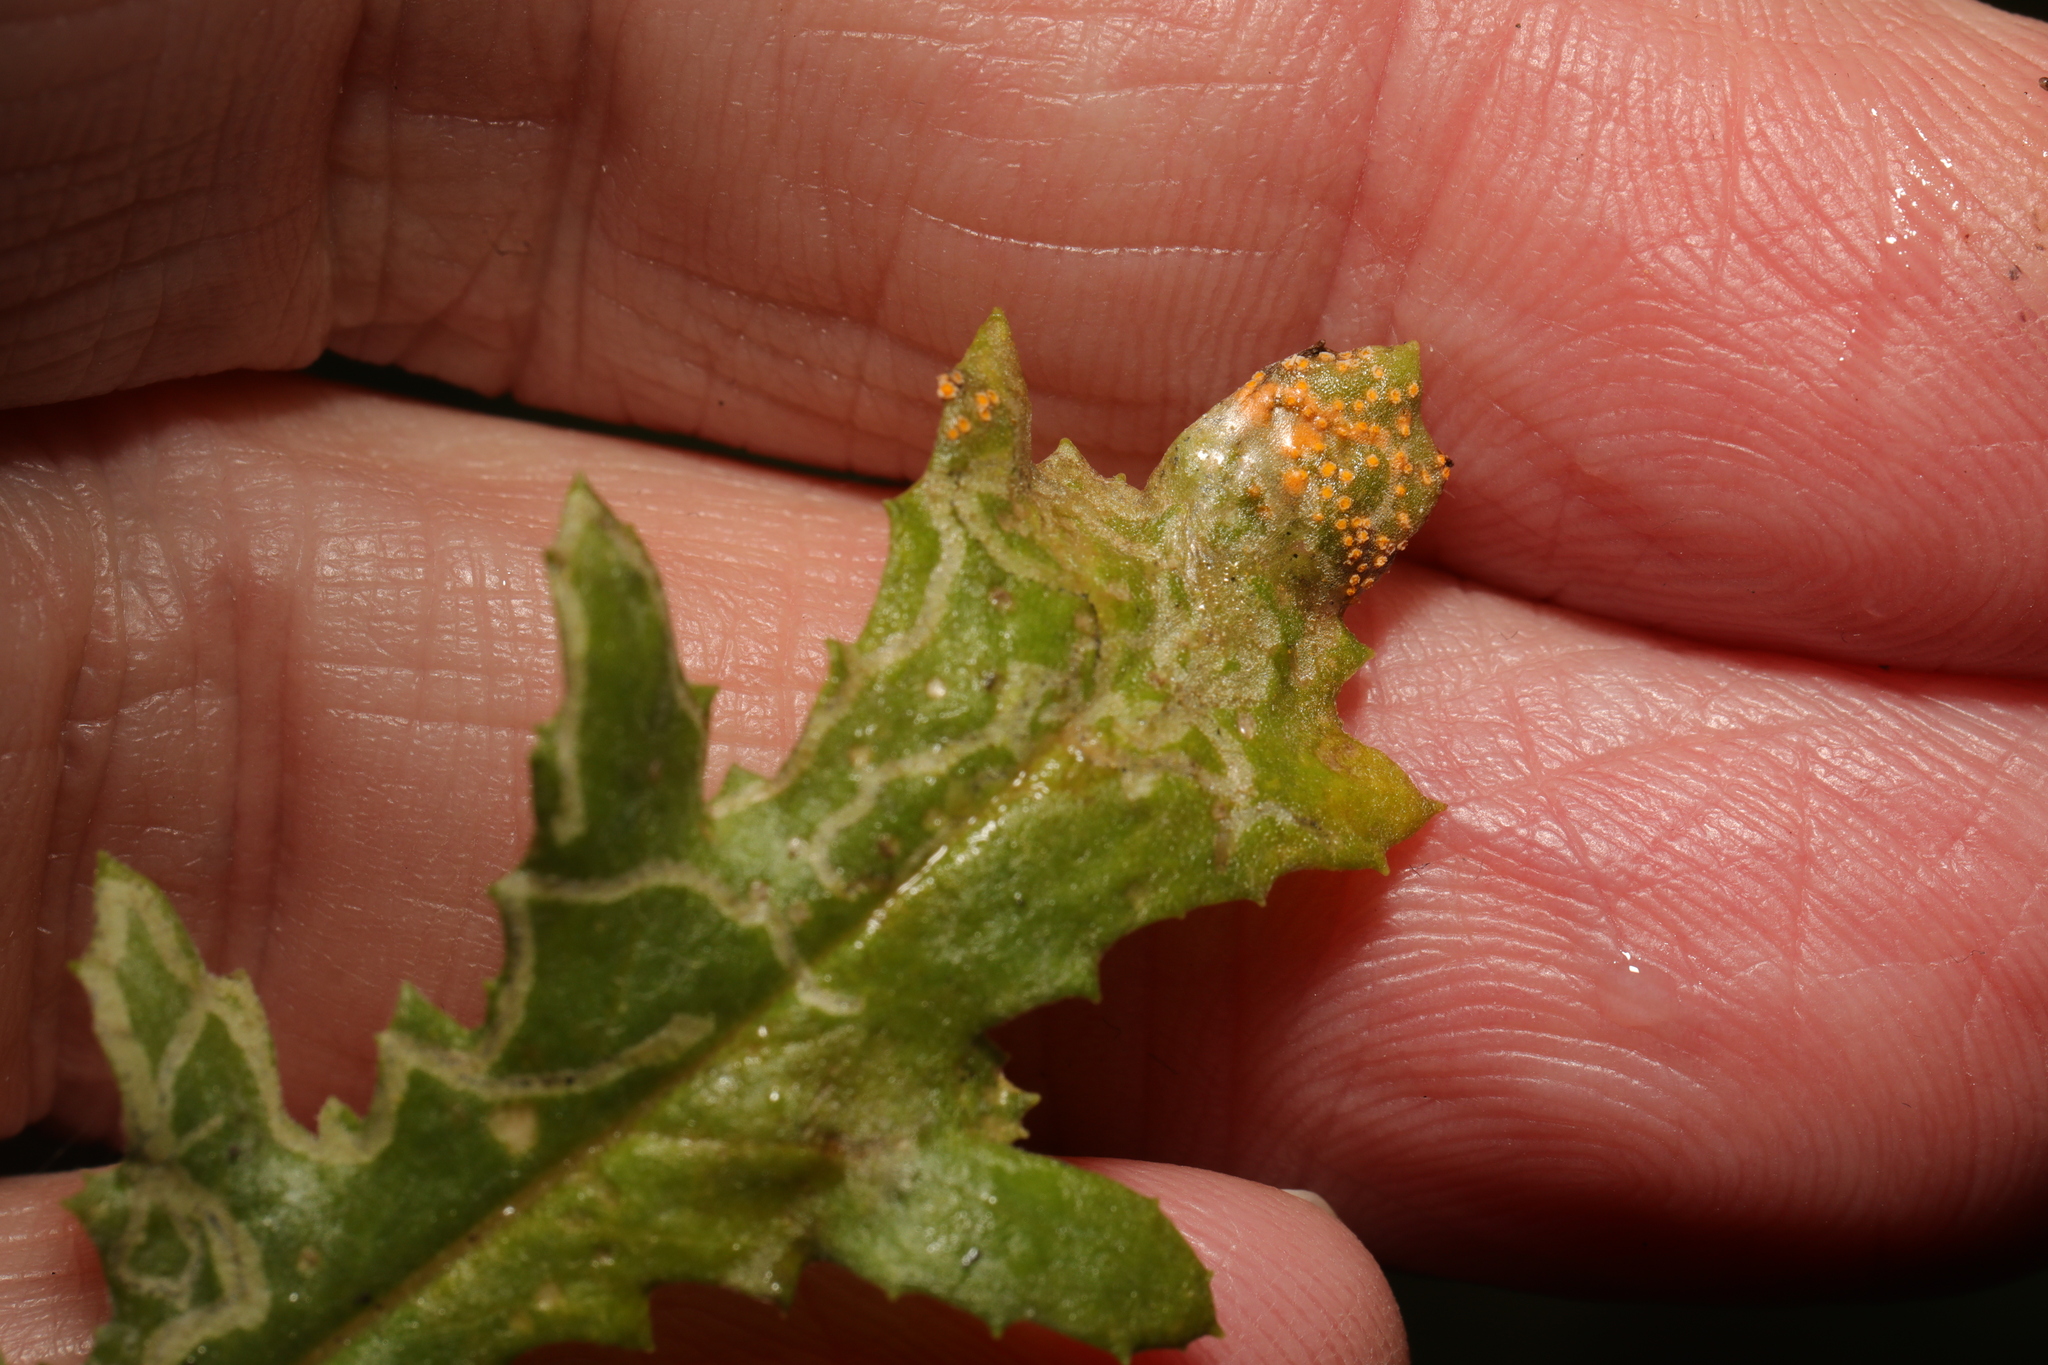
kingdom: Fungi
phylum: Basidiomycota
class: Pucciniomycetes
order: Pucciniales
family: Pucciniaceae
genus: Puccinia
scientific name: Puccinia lagenophorae
